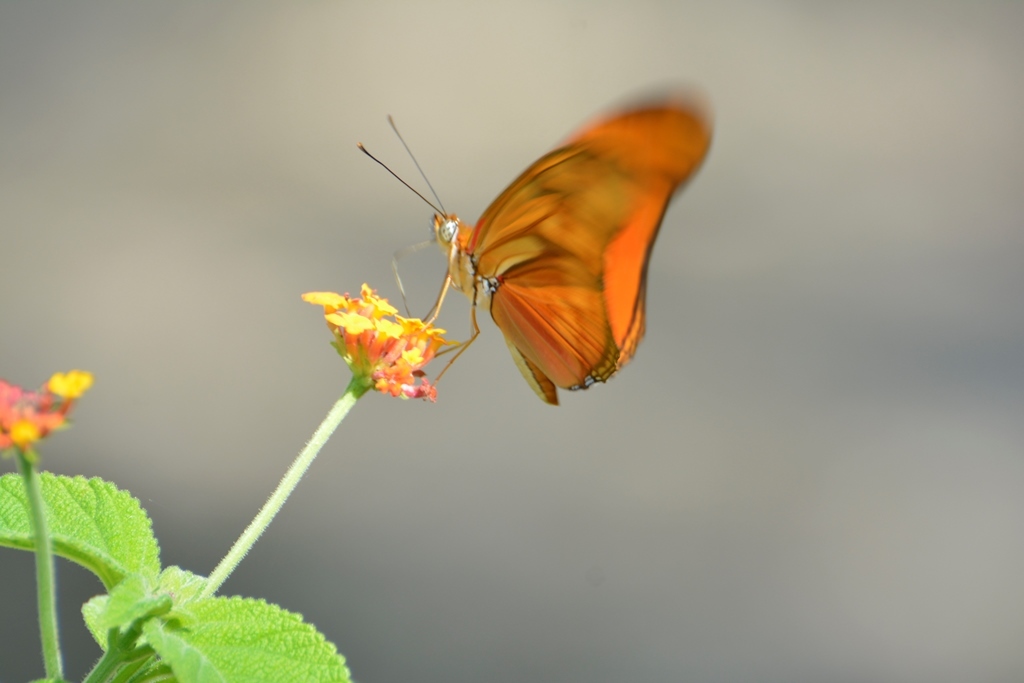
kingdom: Animalia
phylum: Arthropoda
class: Insecta
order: Lepidoptera
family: Nymphalidae
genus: Dryas
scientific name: Dryas iulia
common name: Flambeau
